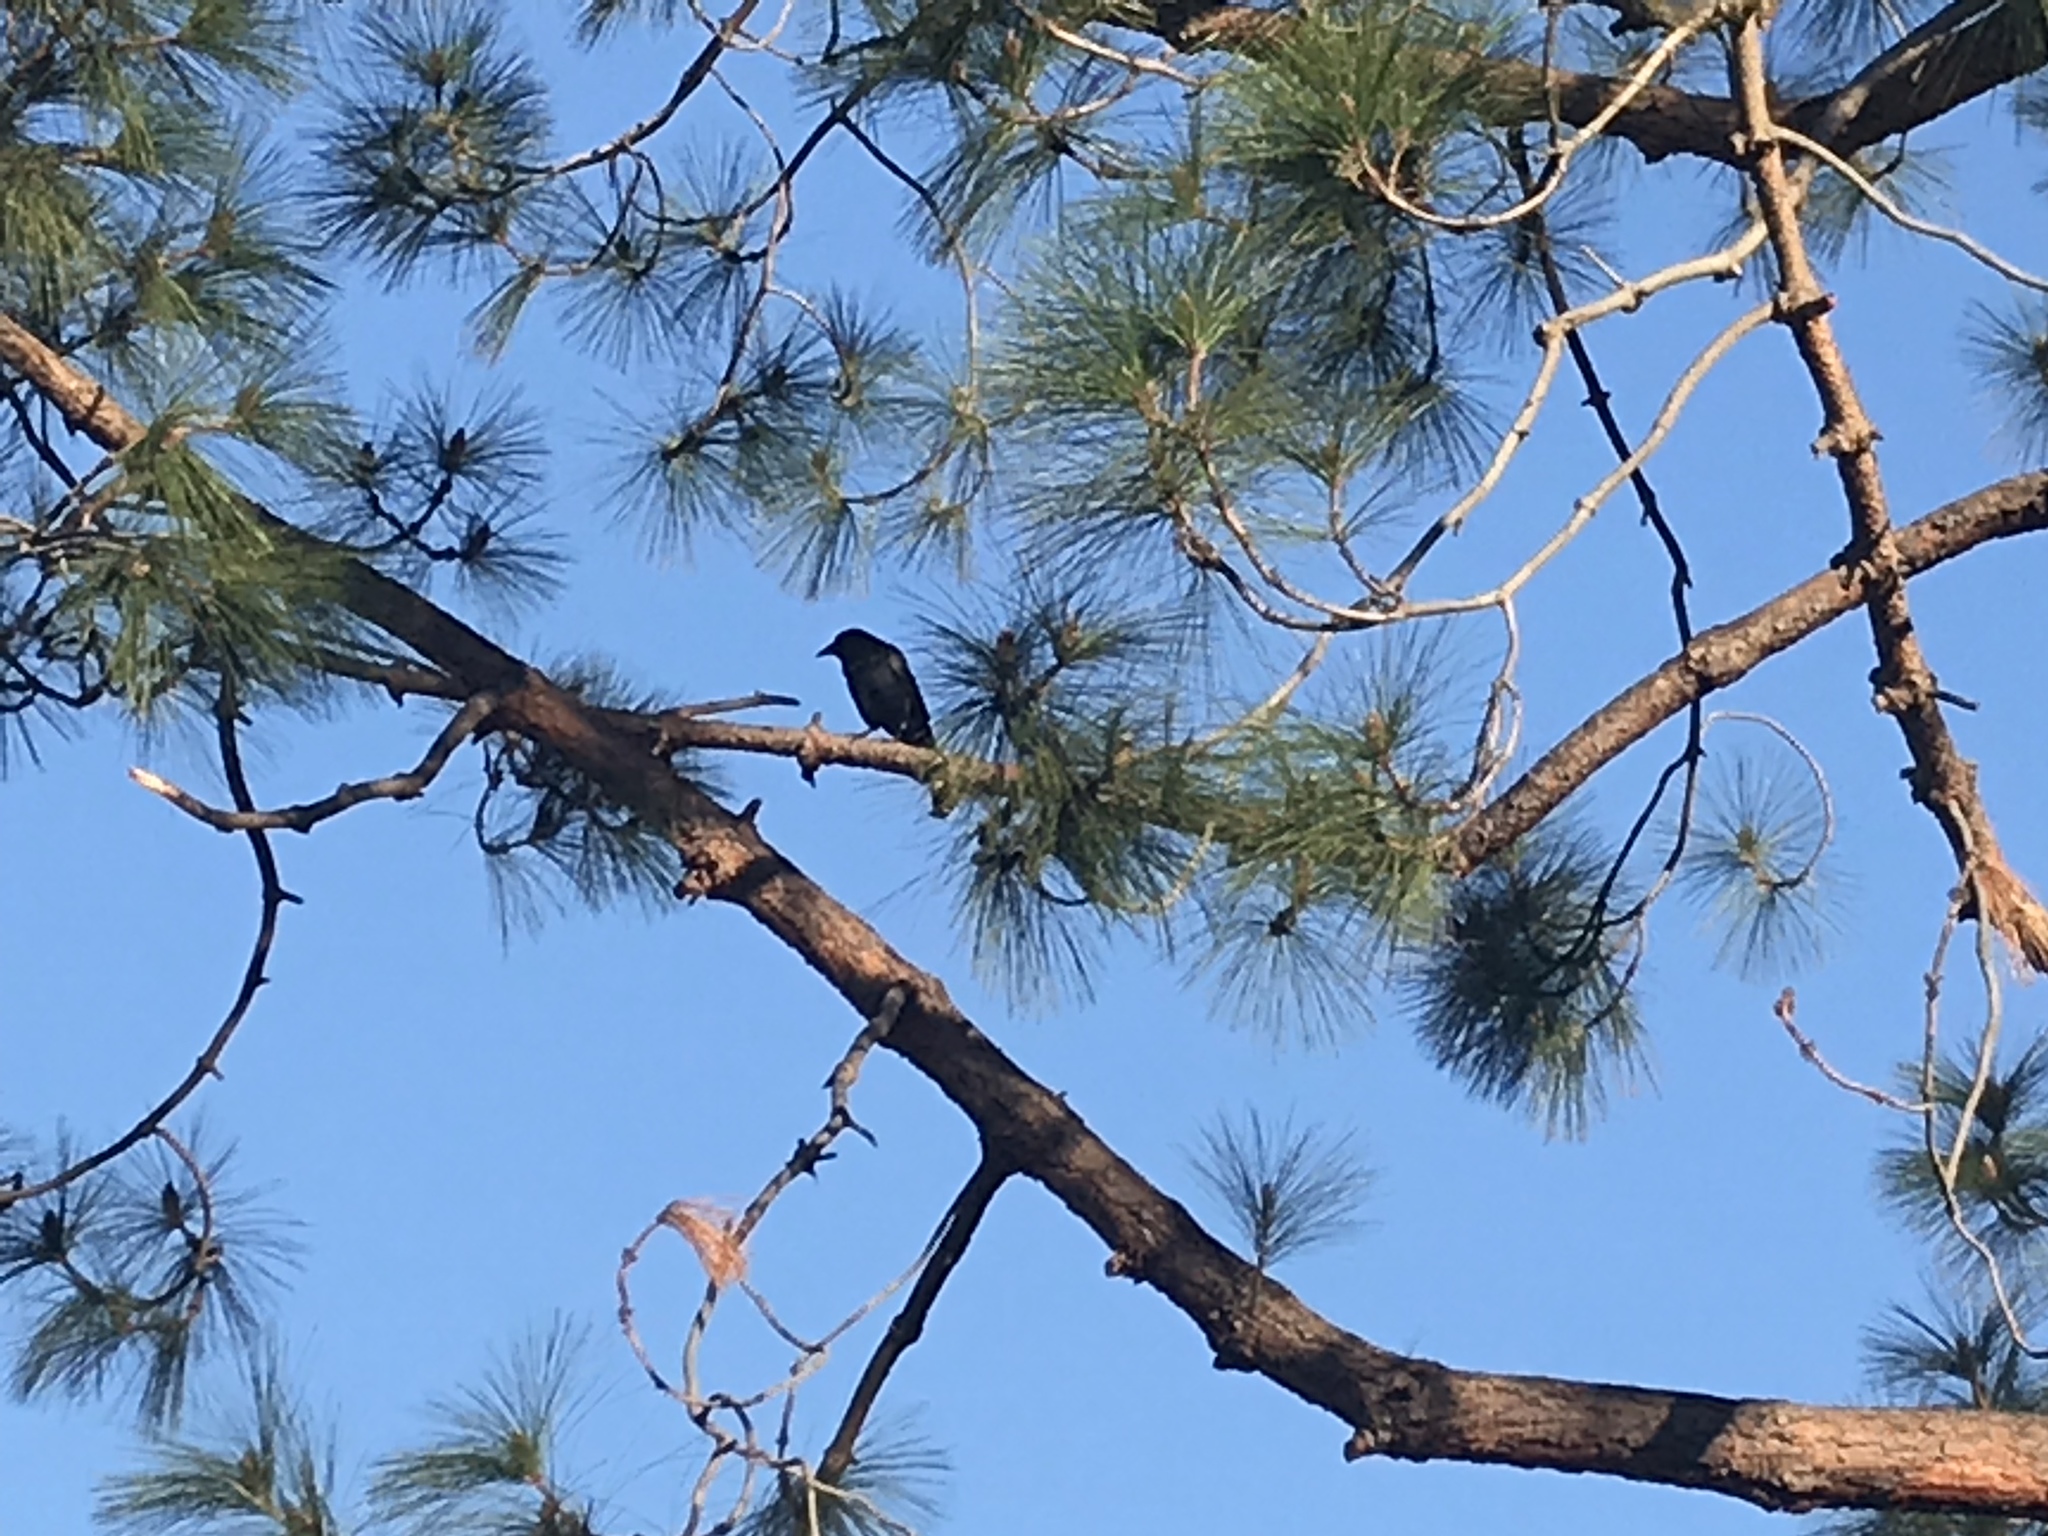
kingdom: Animalia
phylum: Chordata
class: Aves
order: Passeriformes
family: Corvidae
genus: Corvus
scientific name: Corvus brachyrhynchos
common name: American crow
